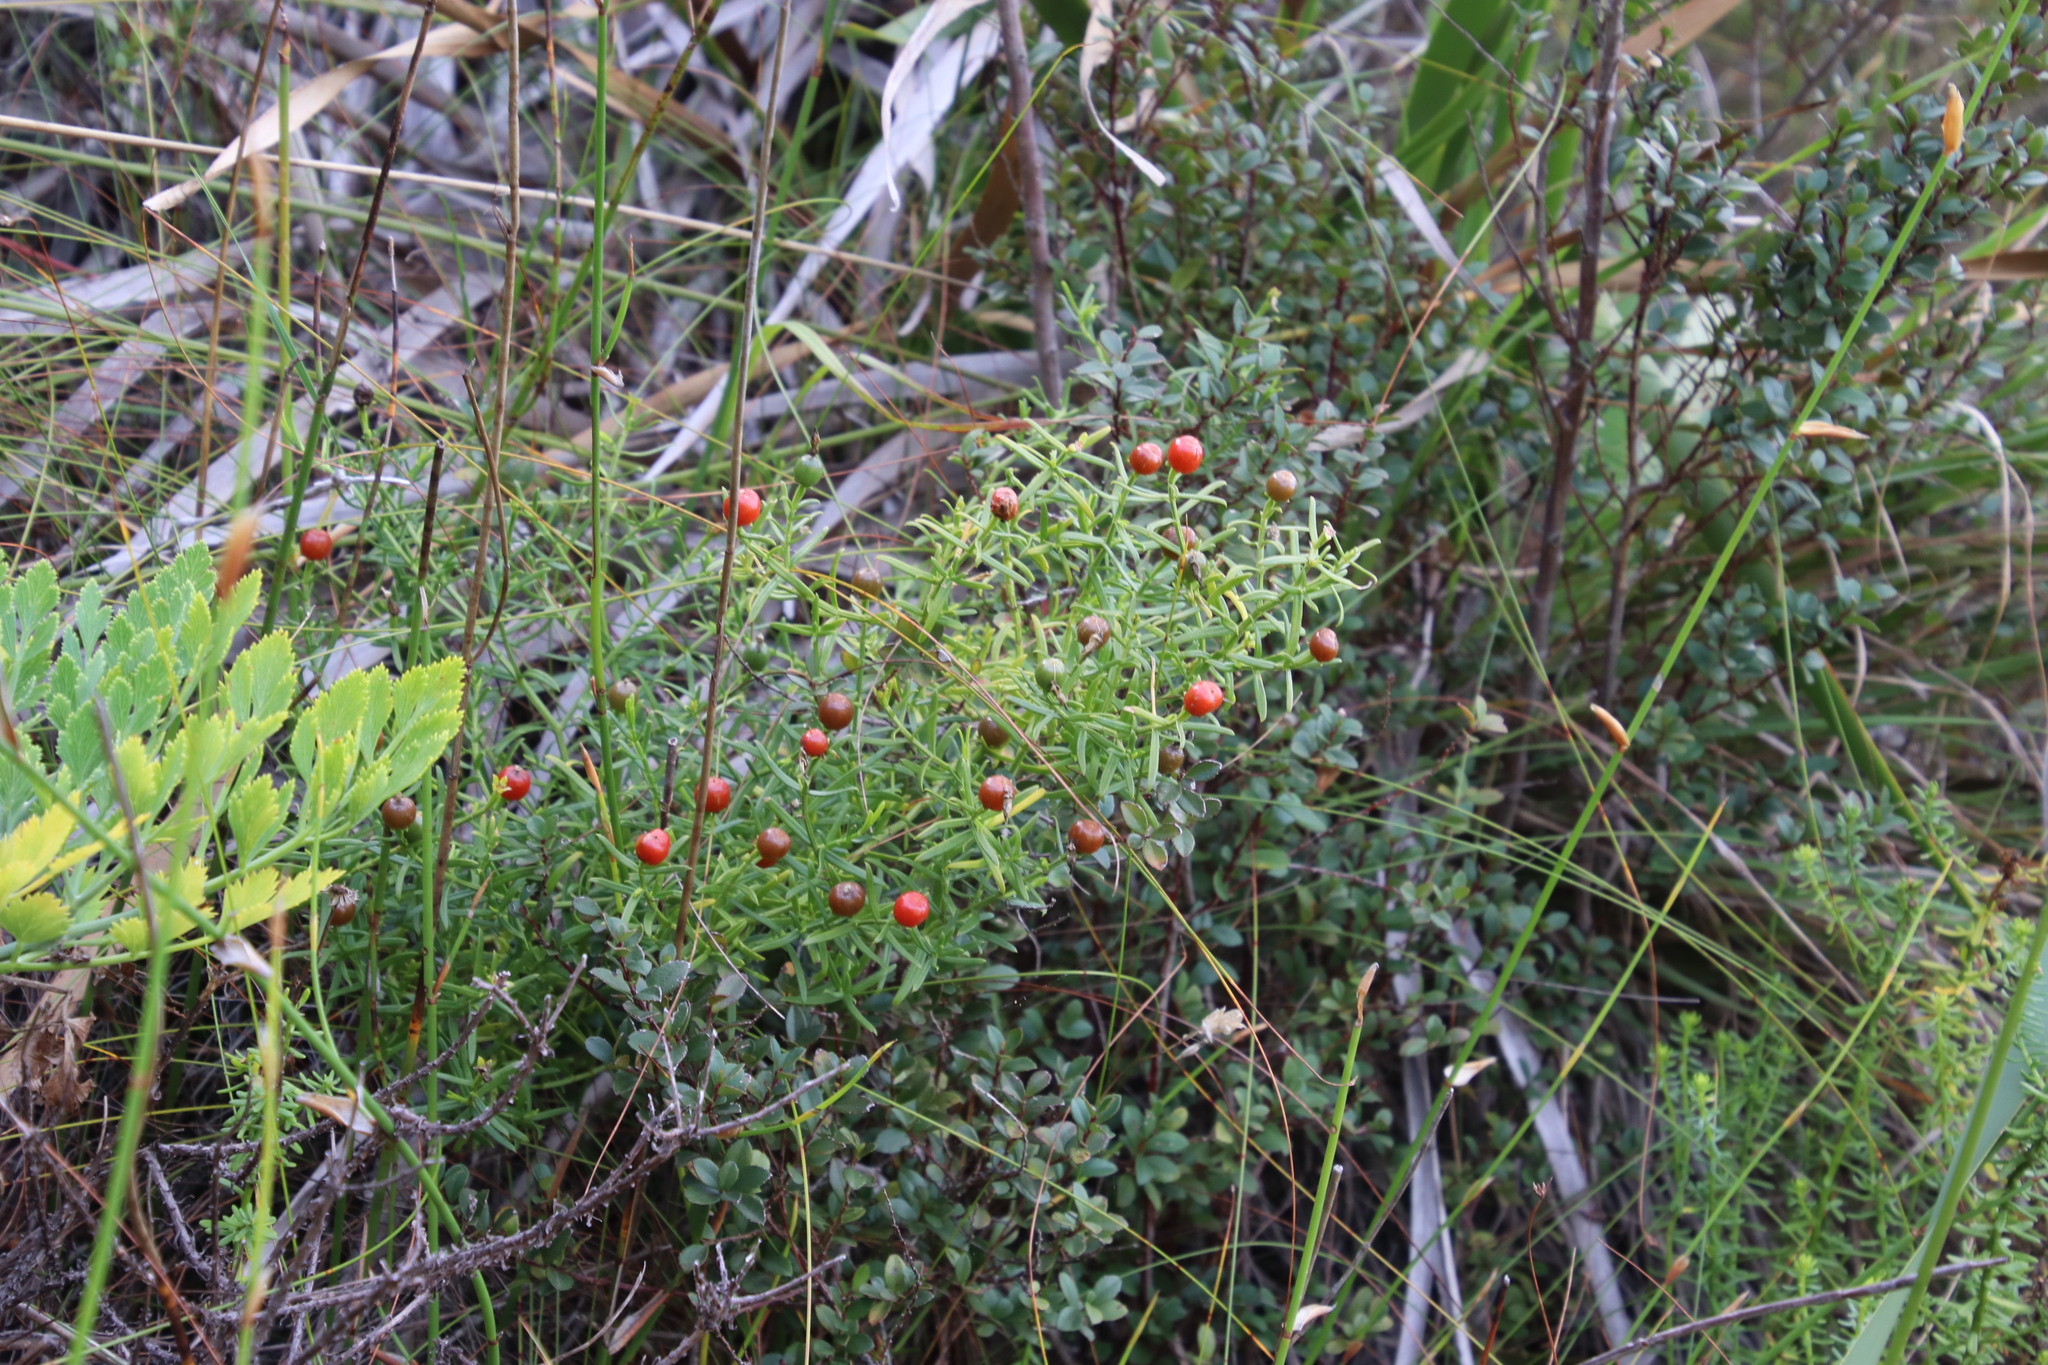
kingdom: Plantae
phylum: Tracheophyta
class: Magnoliopsida
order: Gentianales
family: Gentianaceae
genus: Chironia
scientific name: Chironia baccifera
